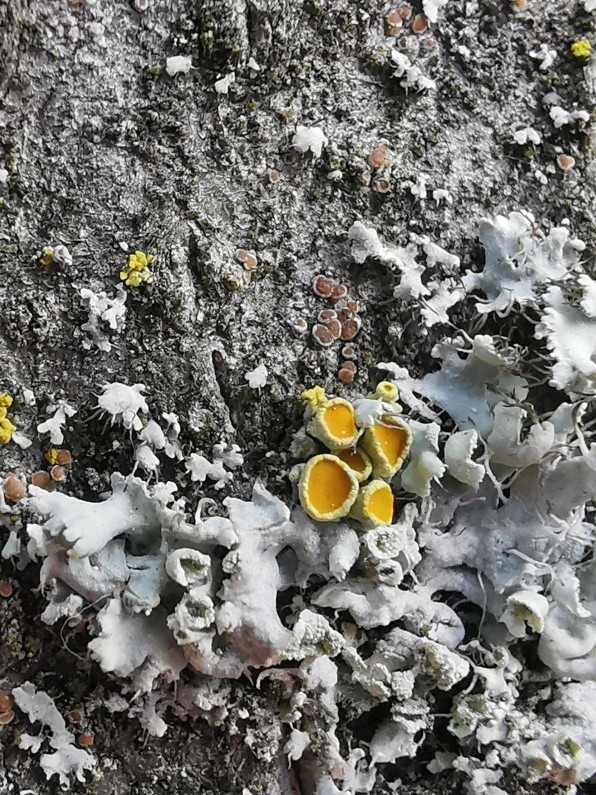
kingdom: Fungi
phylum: Ascomycota
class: Lecanoromycetes
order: Teloschistales
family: Teloschistaceae
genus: Polycauliona
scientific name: Polycauliona polycarpa
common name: Pin-cushion sunburst lichen
